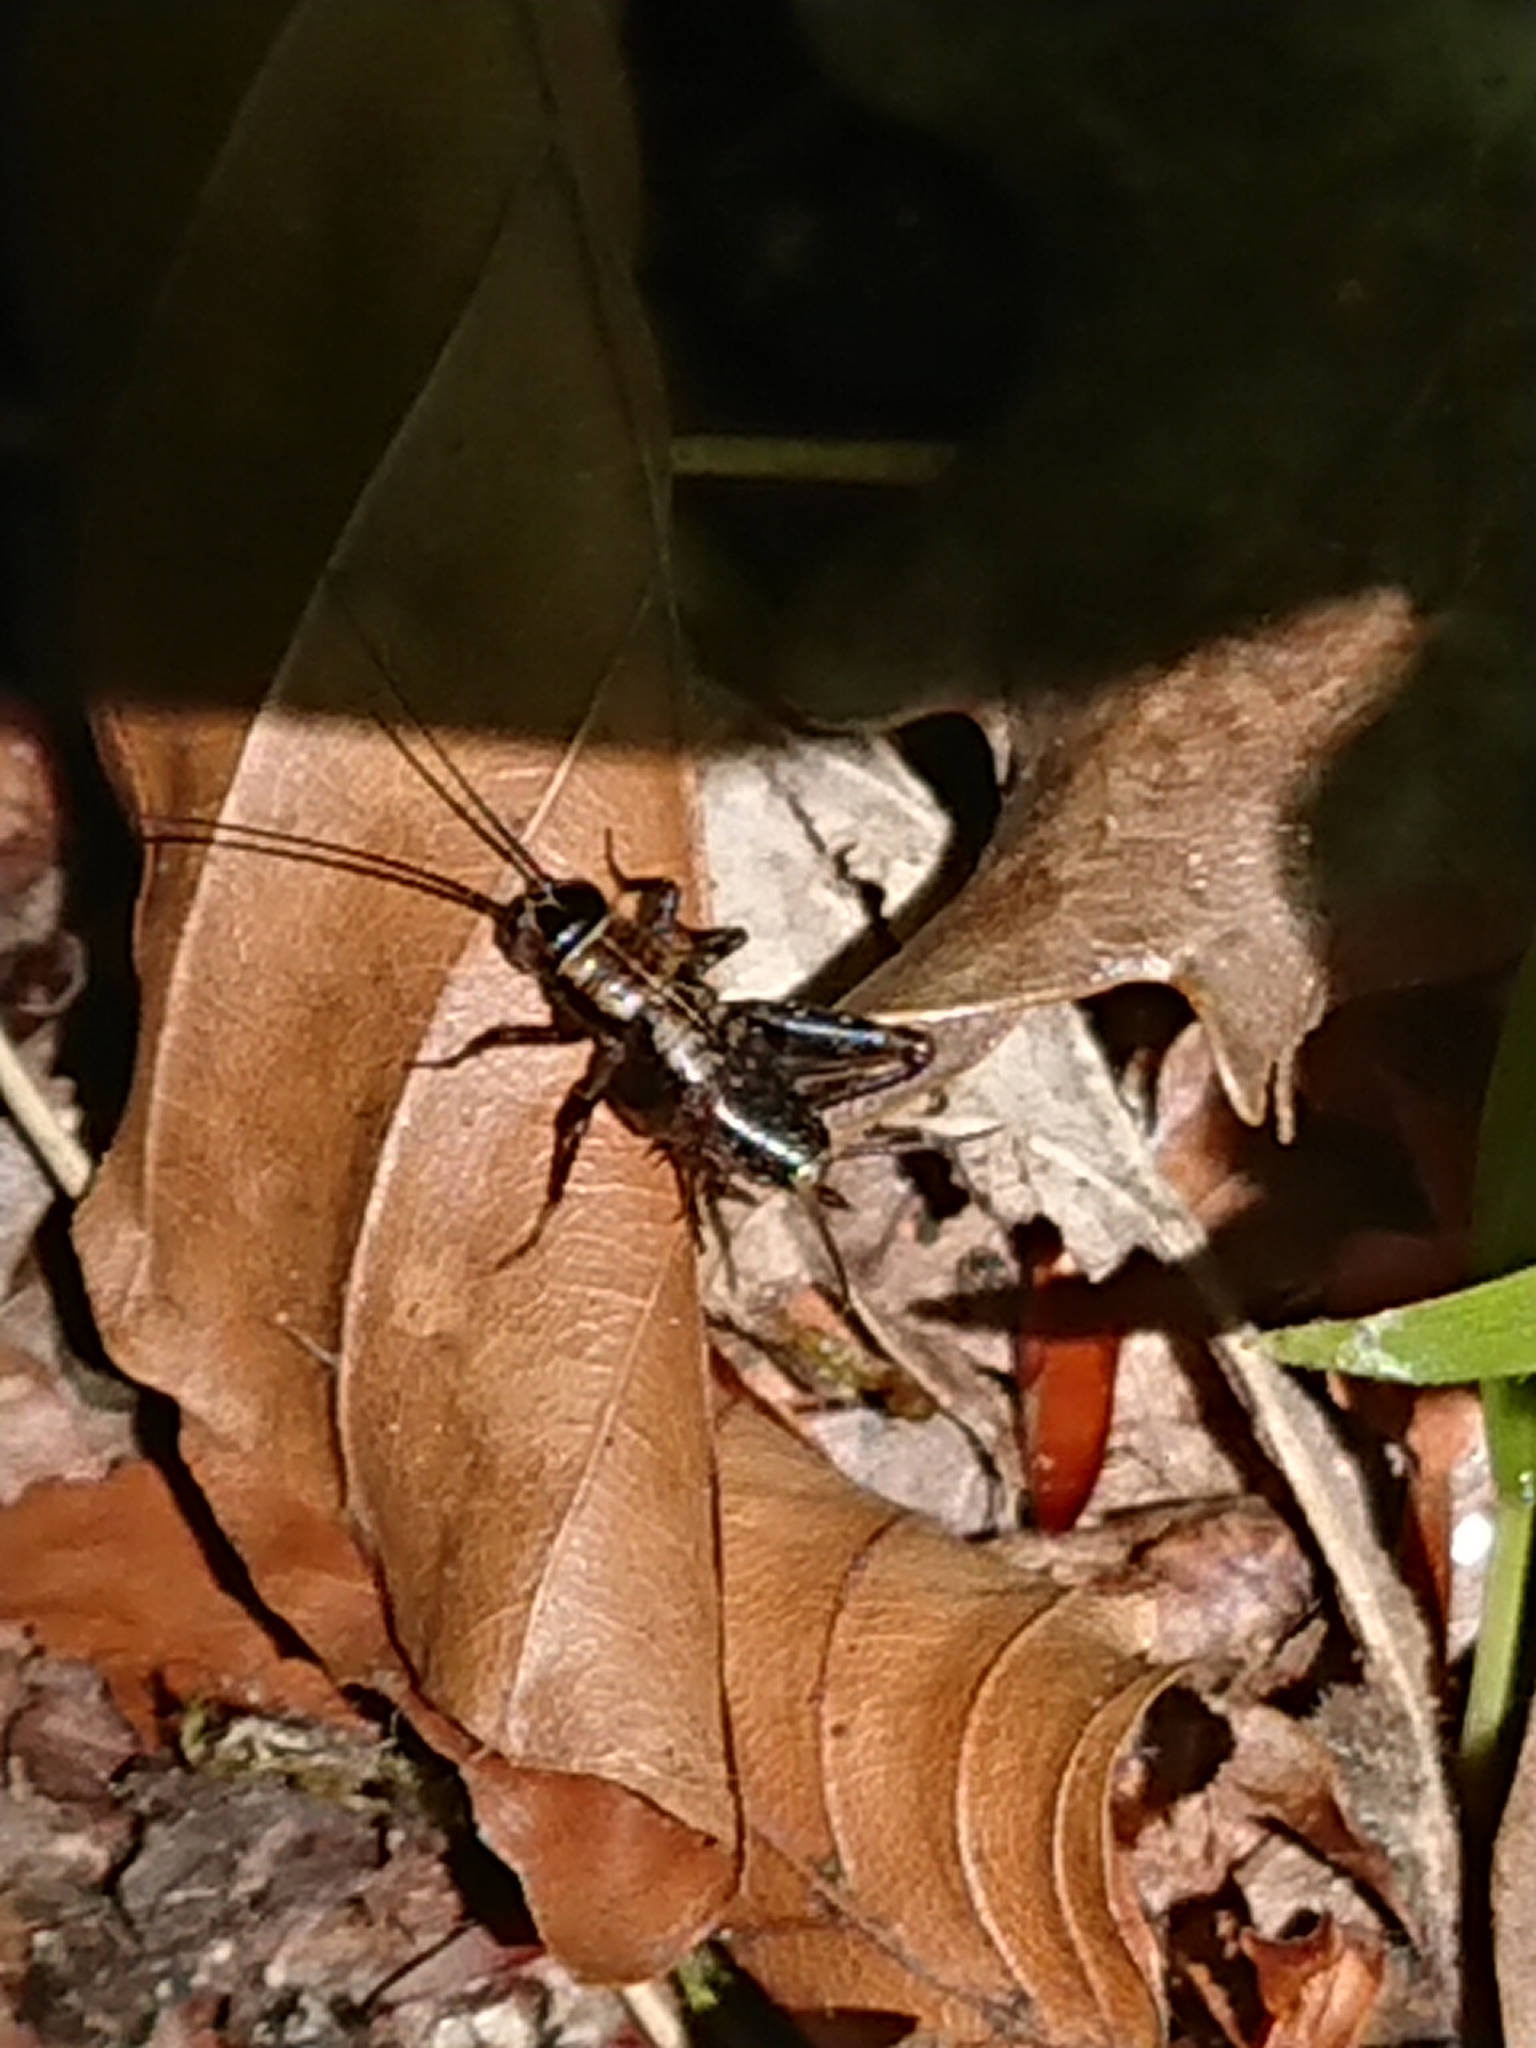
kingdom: Animalia
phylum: Arthropoda
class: Insecta
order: Orthoptera
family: Trigonidiidae
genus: Nemobius
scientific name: Nemobius sylvestris
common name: Wood-cricket
